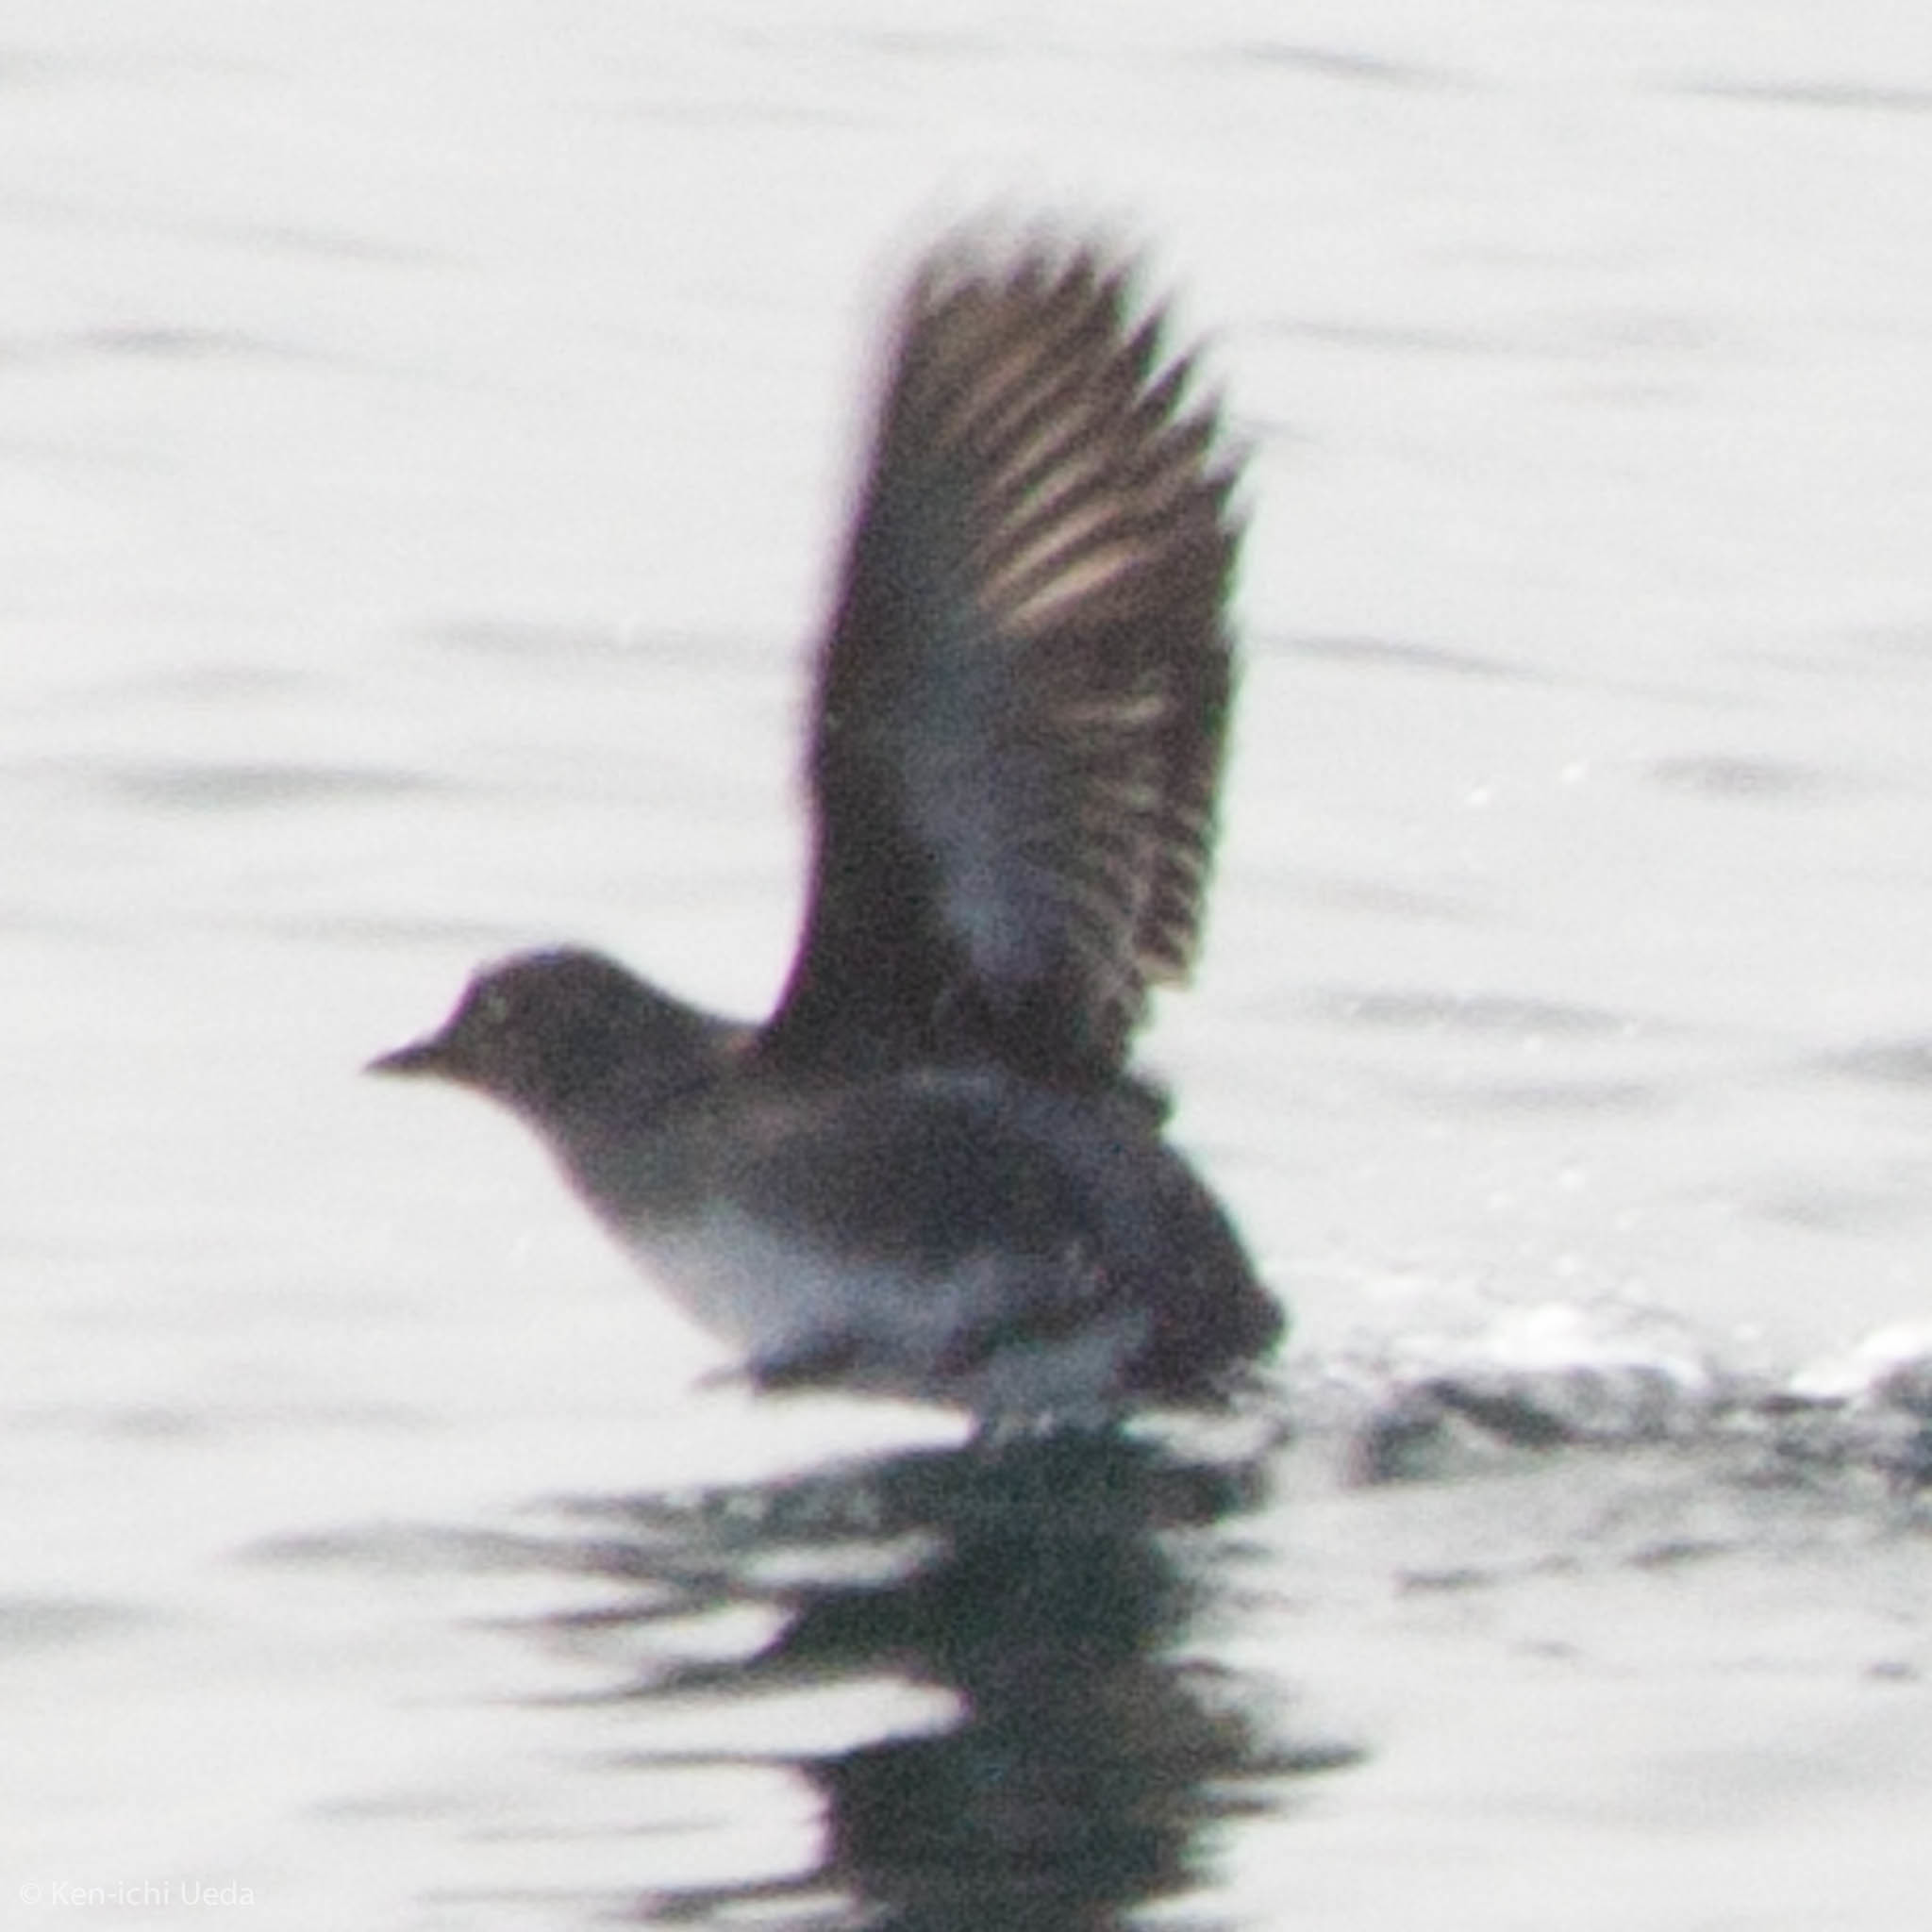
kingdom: Animalia
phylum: Chordata
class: Aves
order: Charadriiformes
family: Alcidae
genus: Ptychoramphus
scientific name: Ptychoramphus aleuticus
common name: Cassin's auklet
